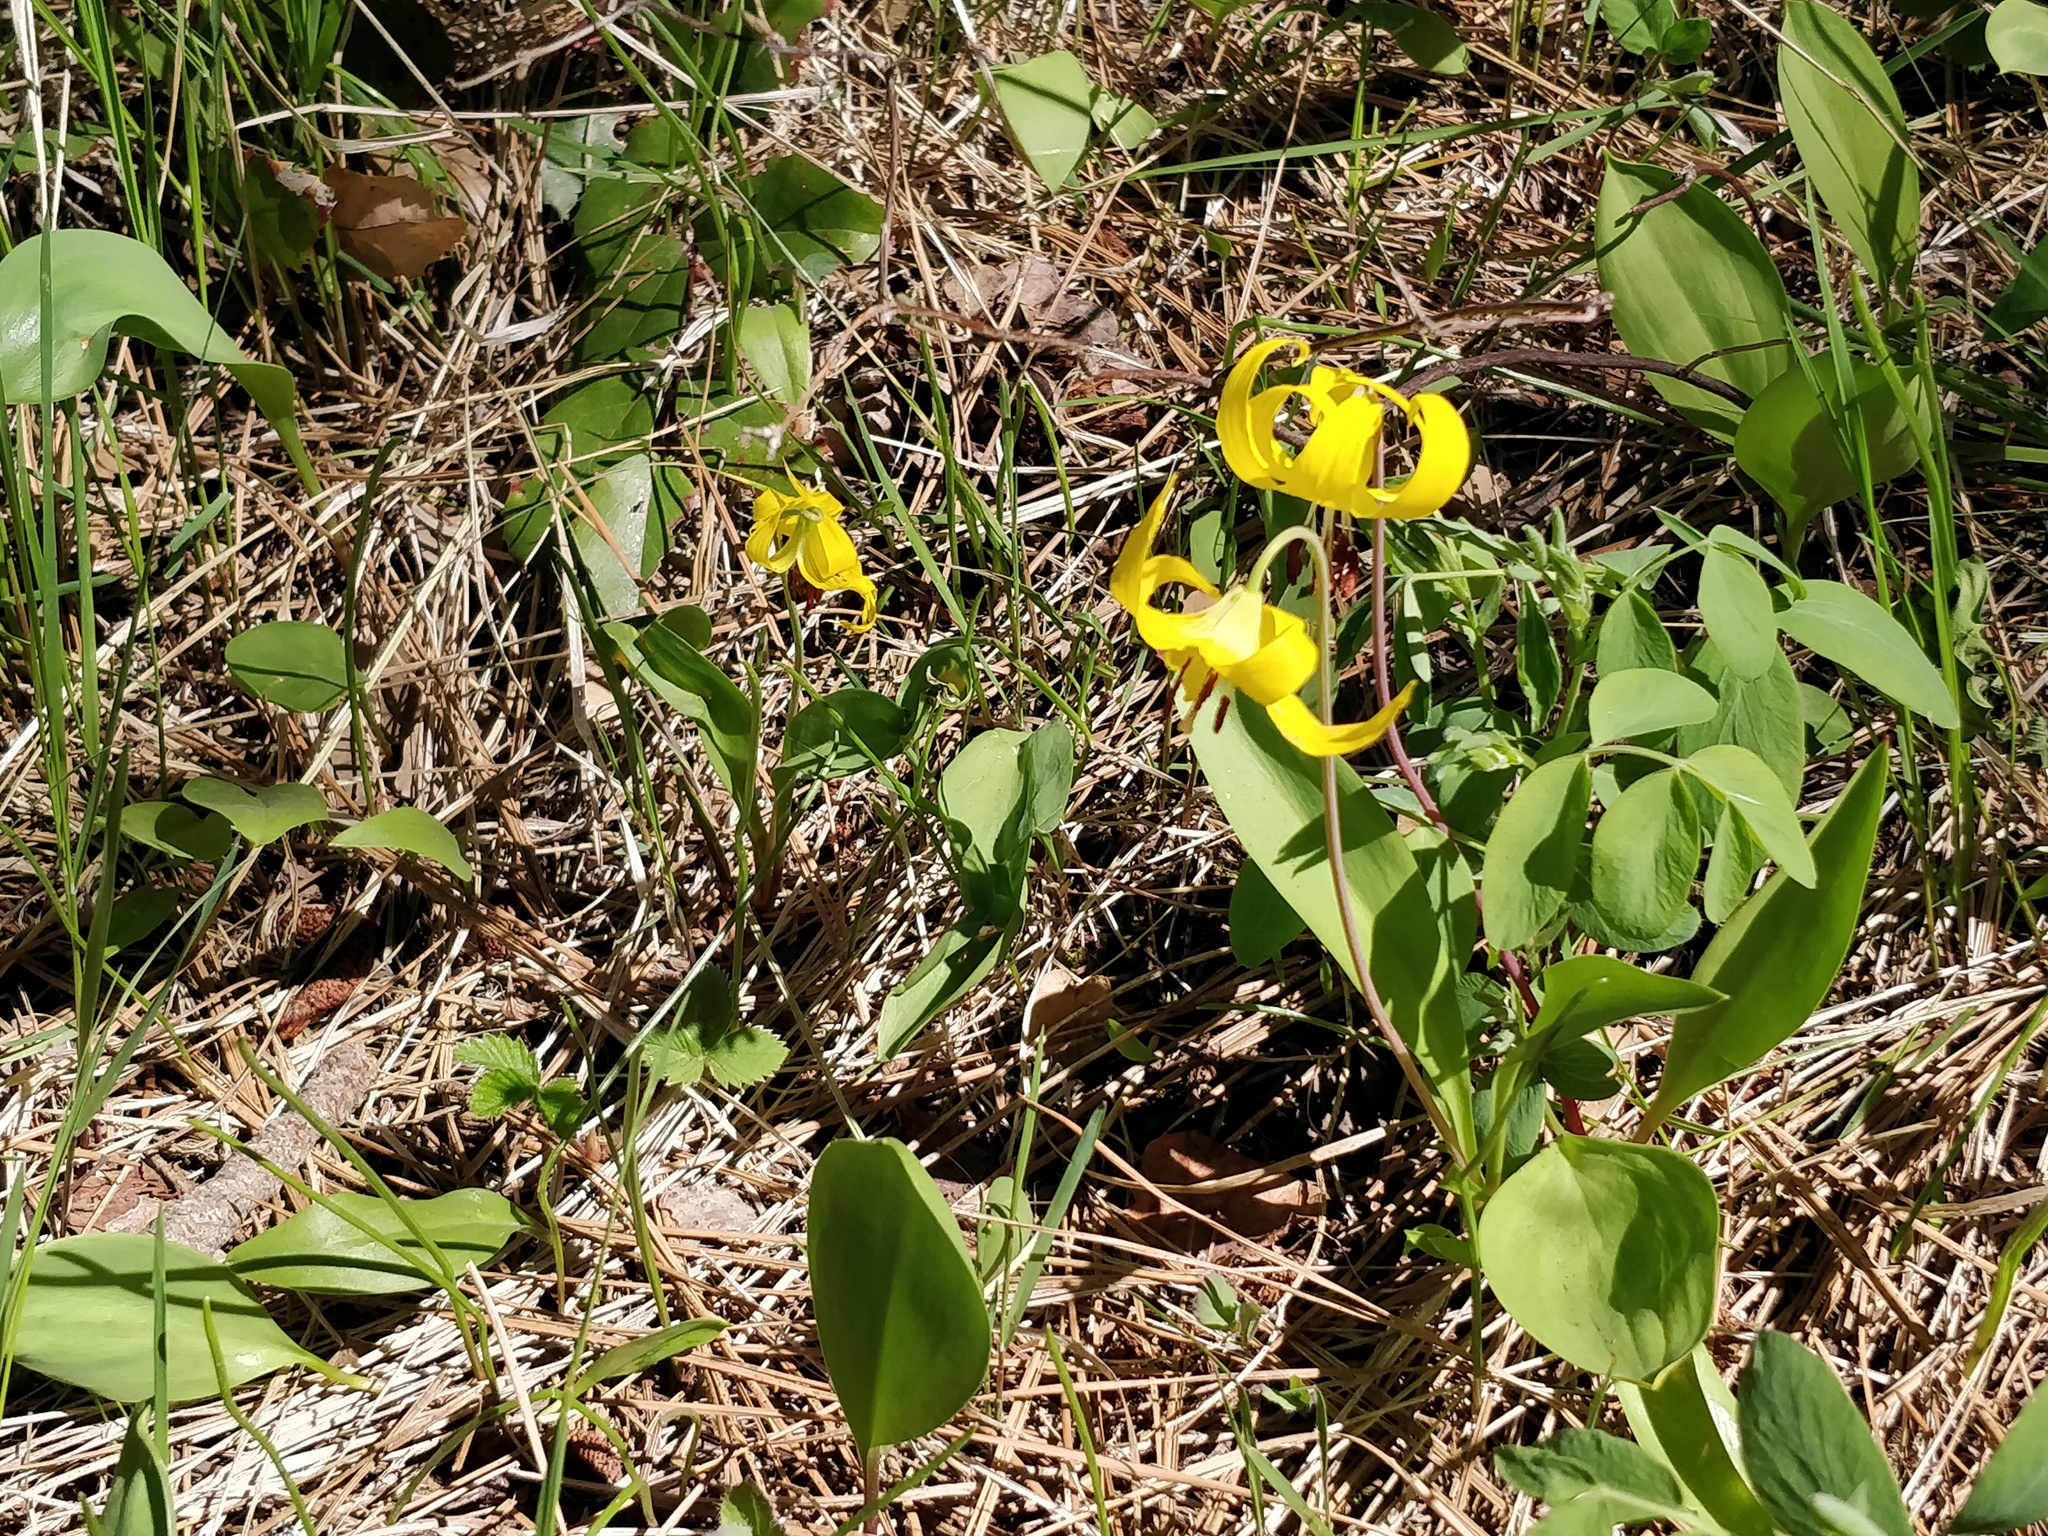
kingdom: Plantae
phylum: Tracheophyta
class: Liliopsida
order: Liliales
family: Liliaceae
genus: Erythronium
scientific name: Erythronium grandiflorum
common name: Avalanche-lily
